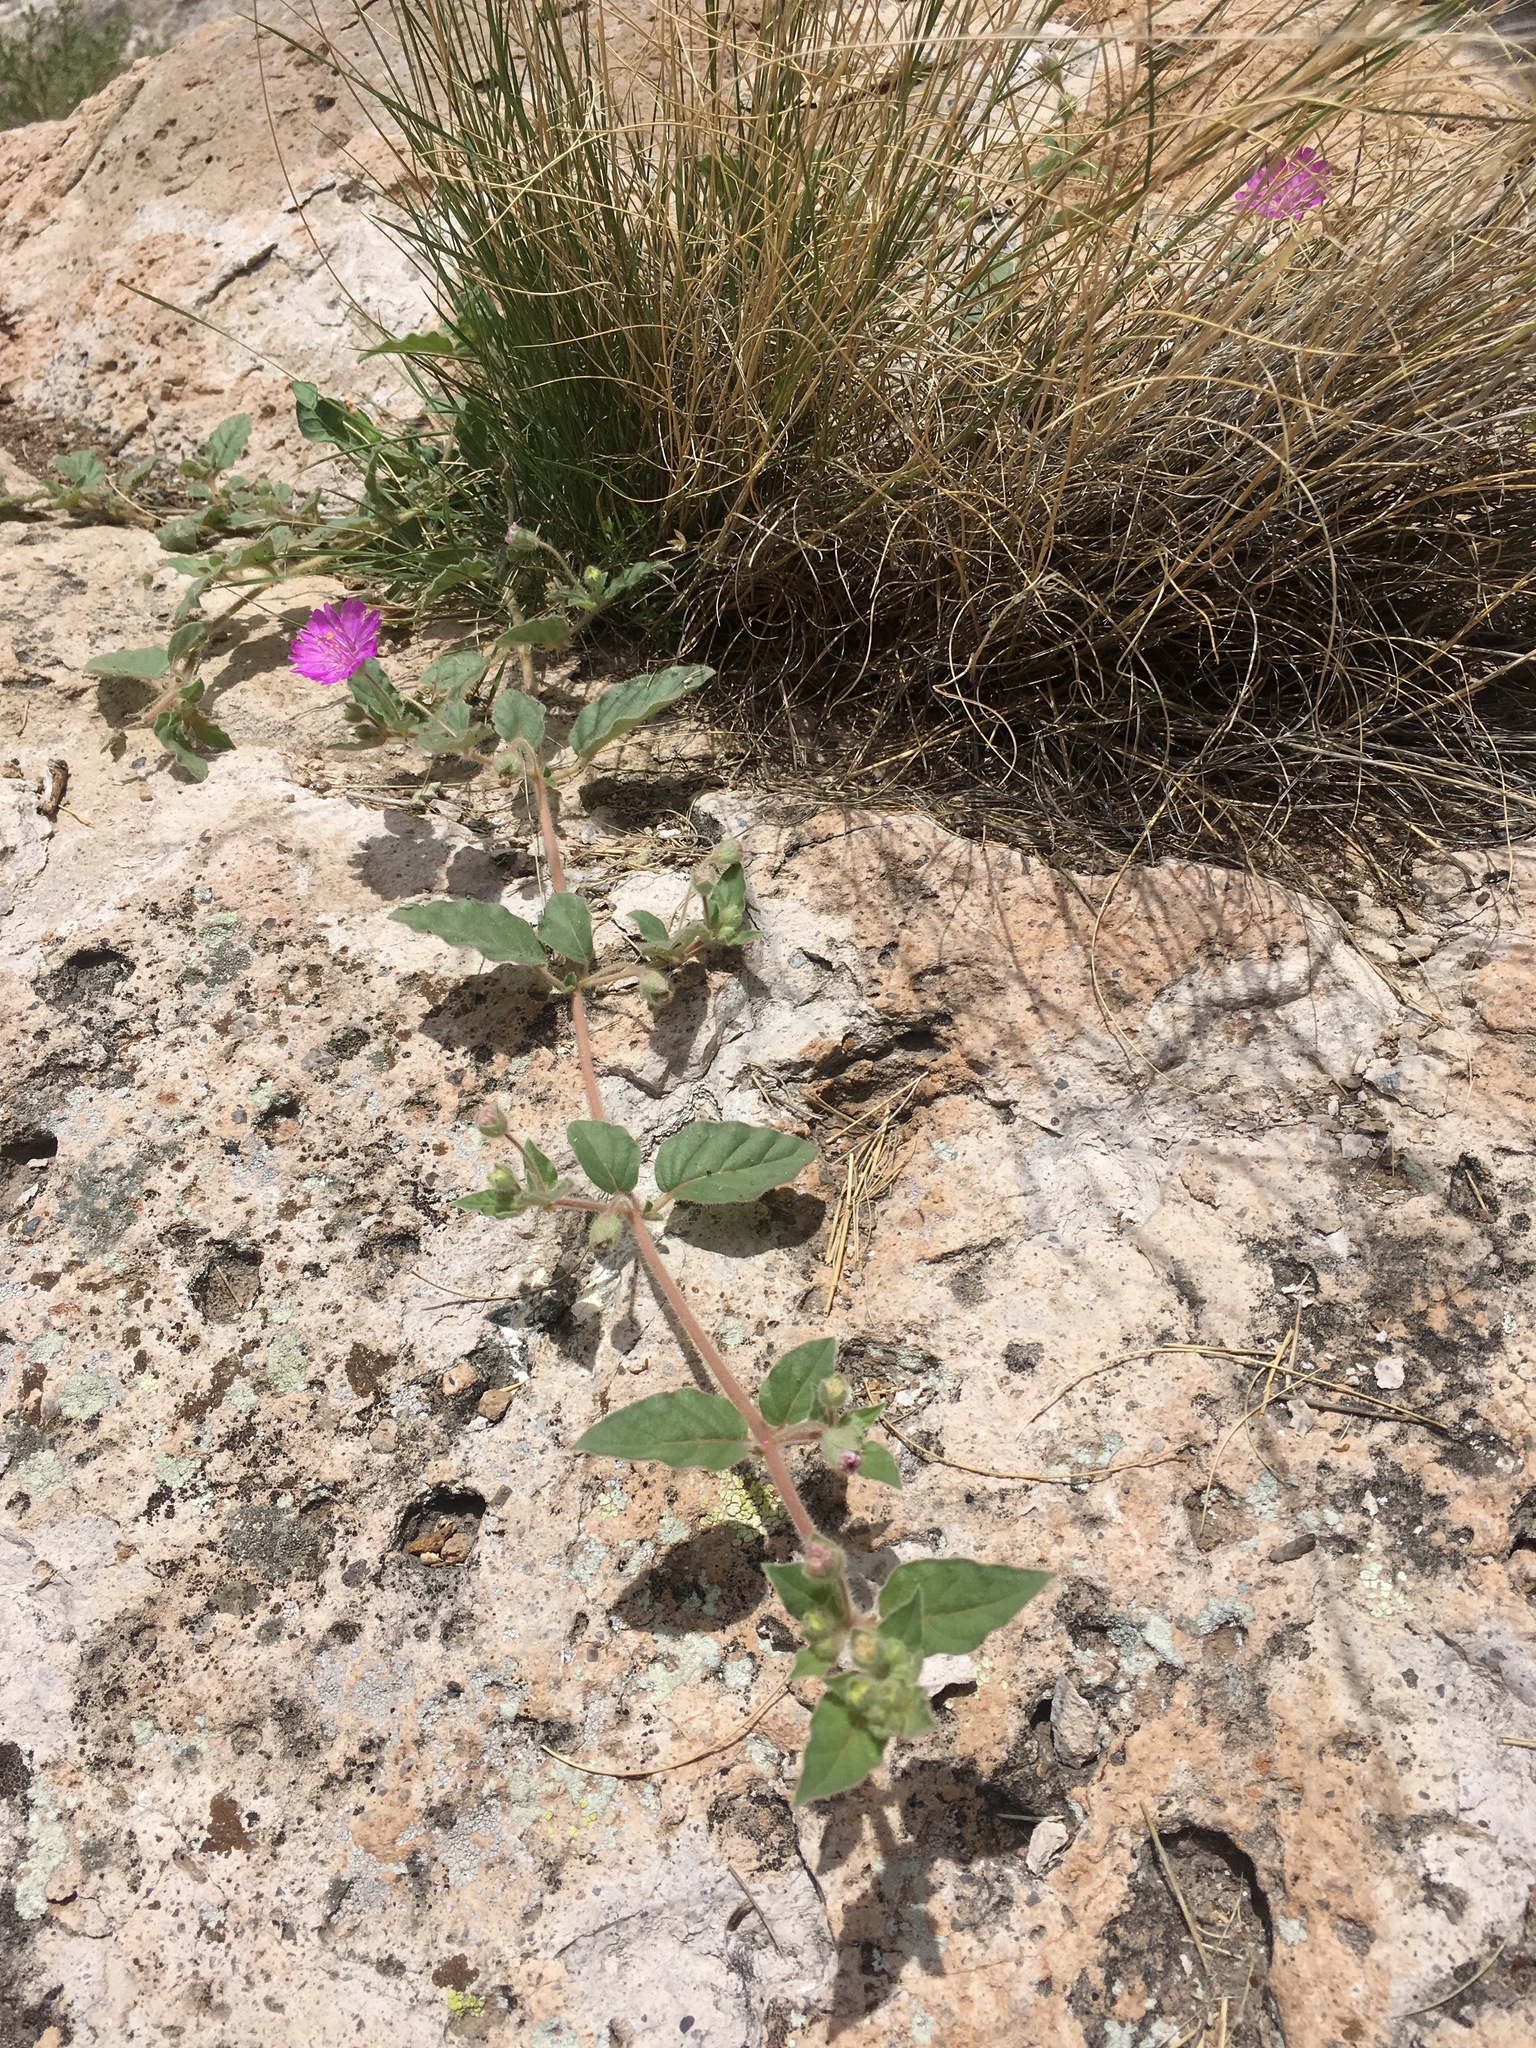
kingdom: Plantae
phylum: Tracheophyta
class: Magnoliopsida
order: Caryophyllales
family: Nyctaginaceae
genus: Allionia
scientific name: Allionia incarnata
